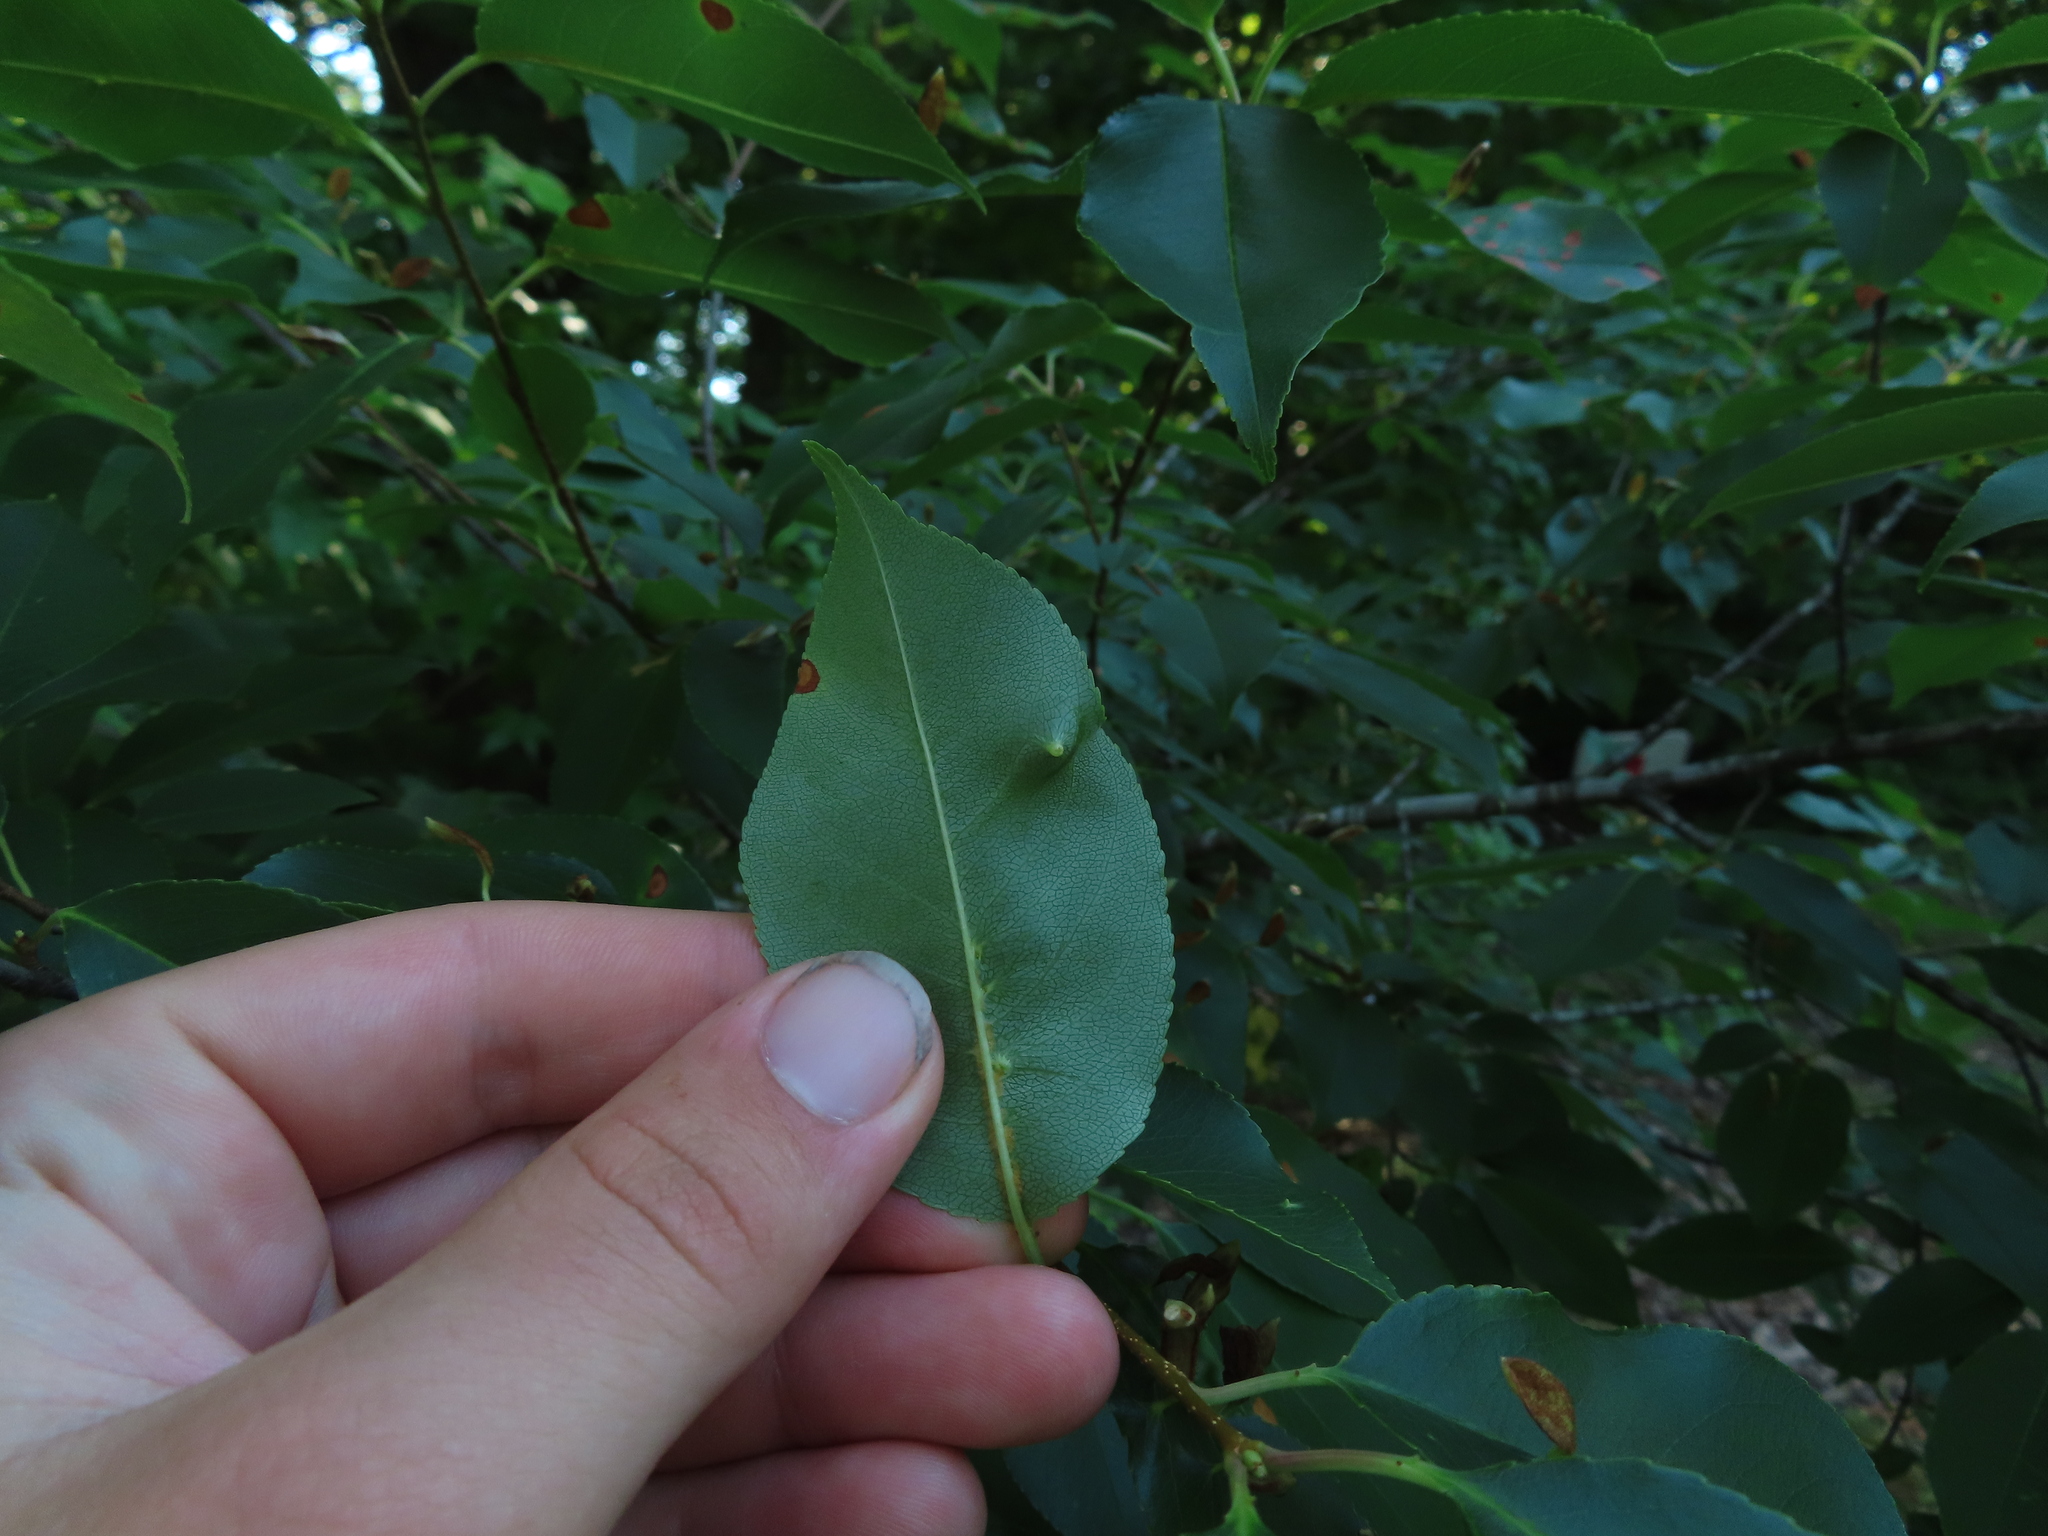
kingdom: Animalia
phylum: Arthropoda
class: Arachnida
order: Trombidiformes
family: Eriophyidae
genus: Eriophyes
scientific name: Eriophyes
